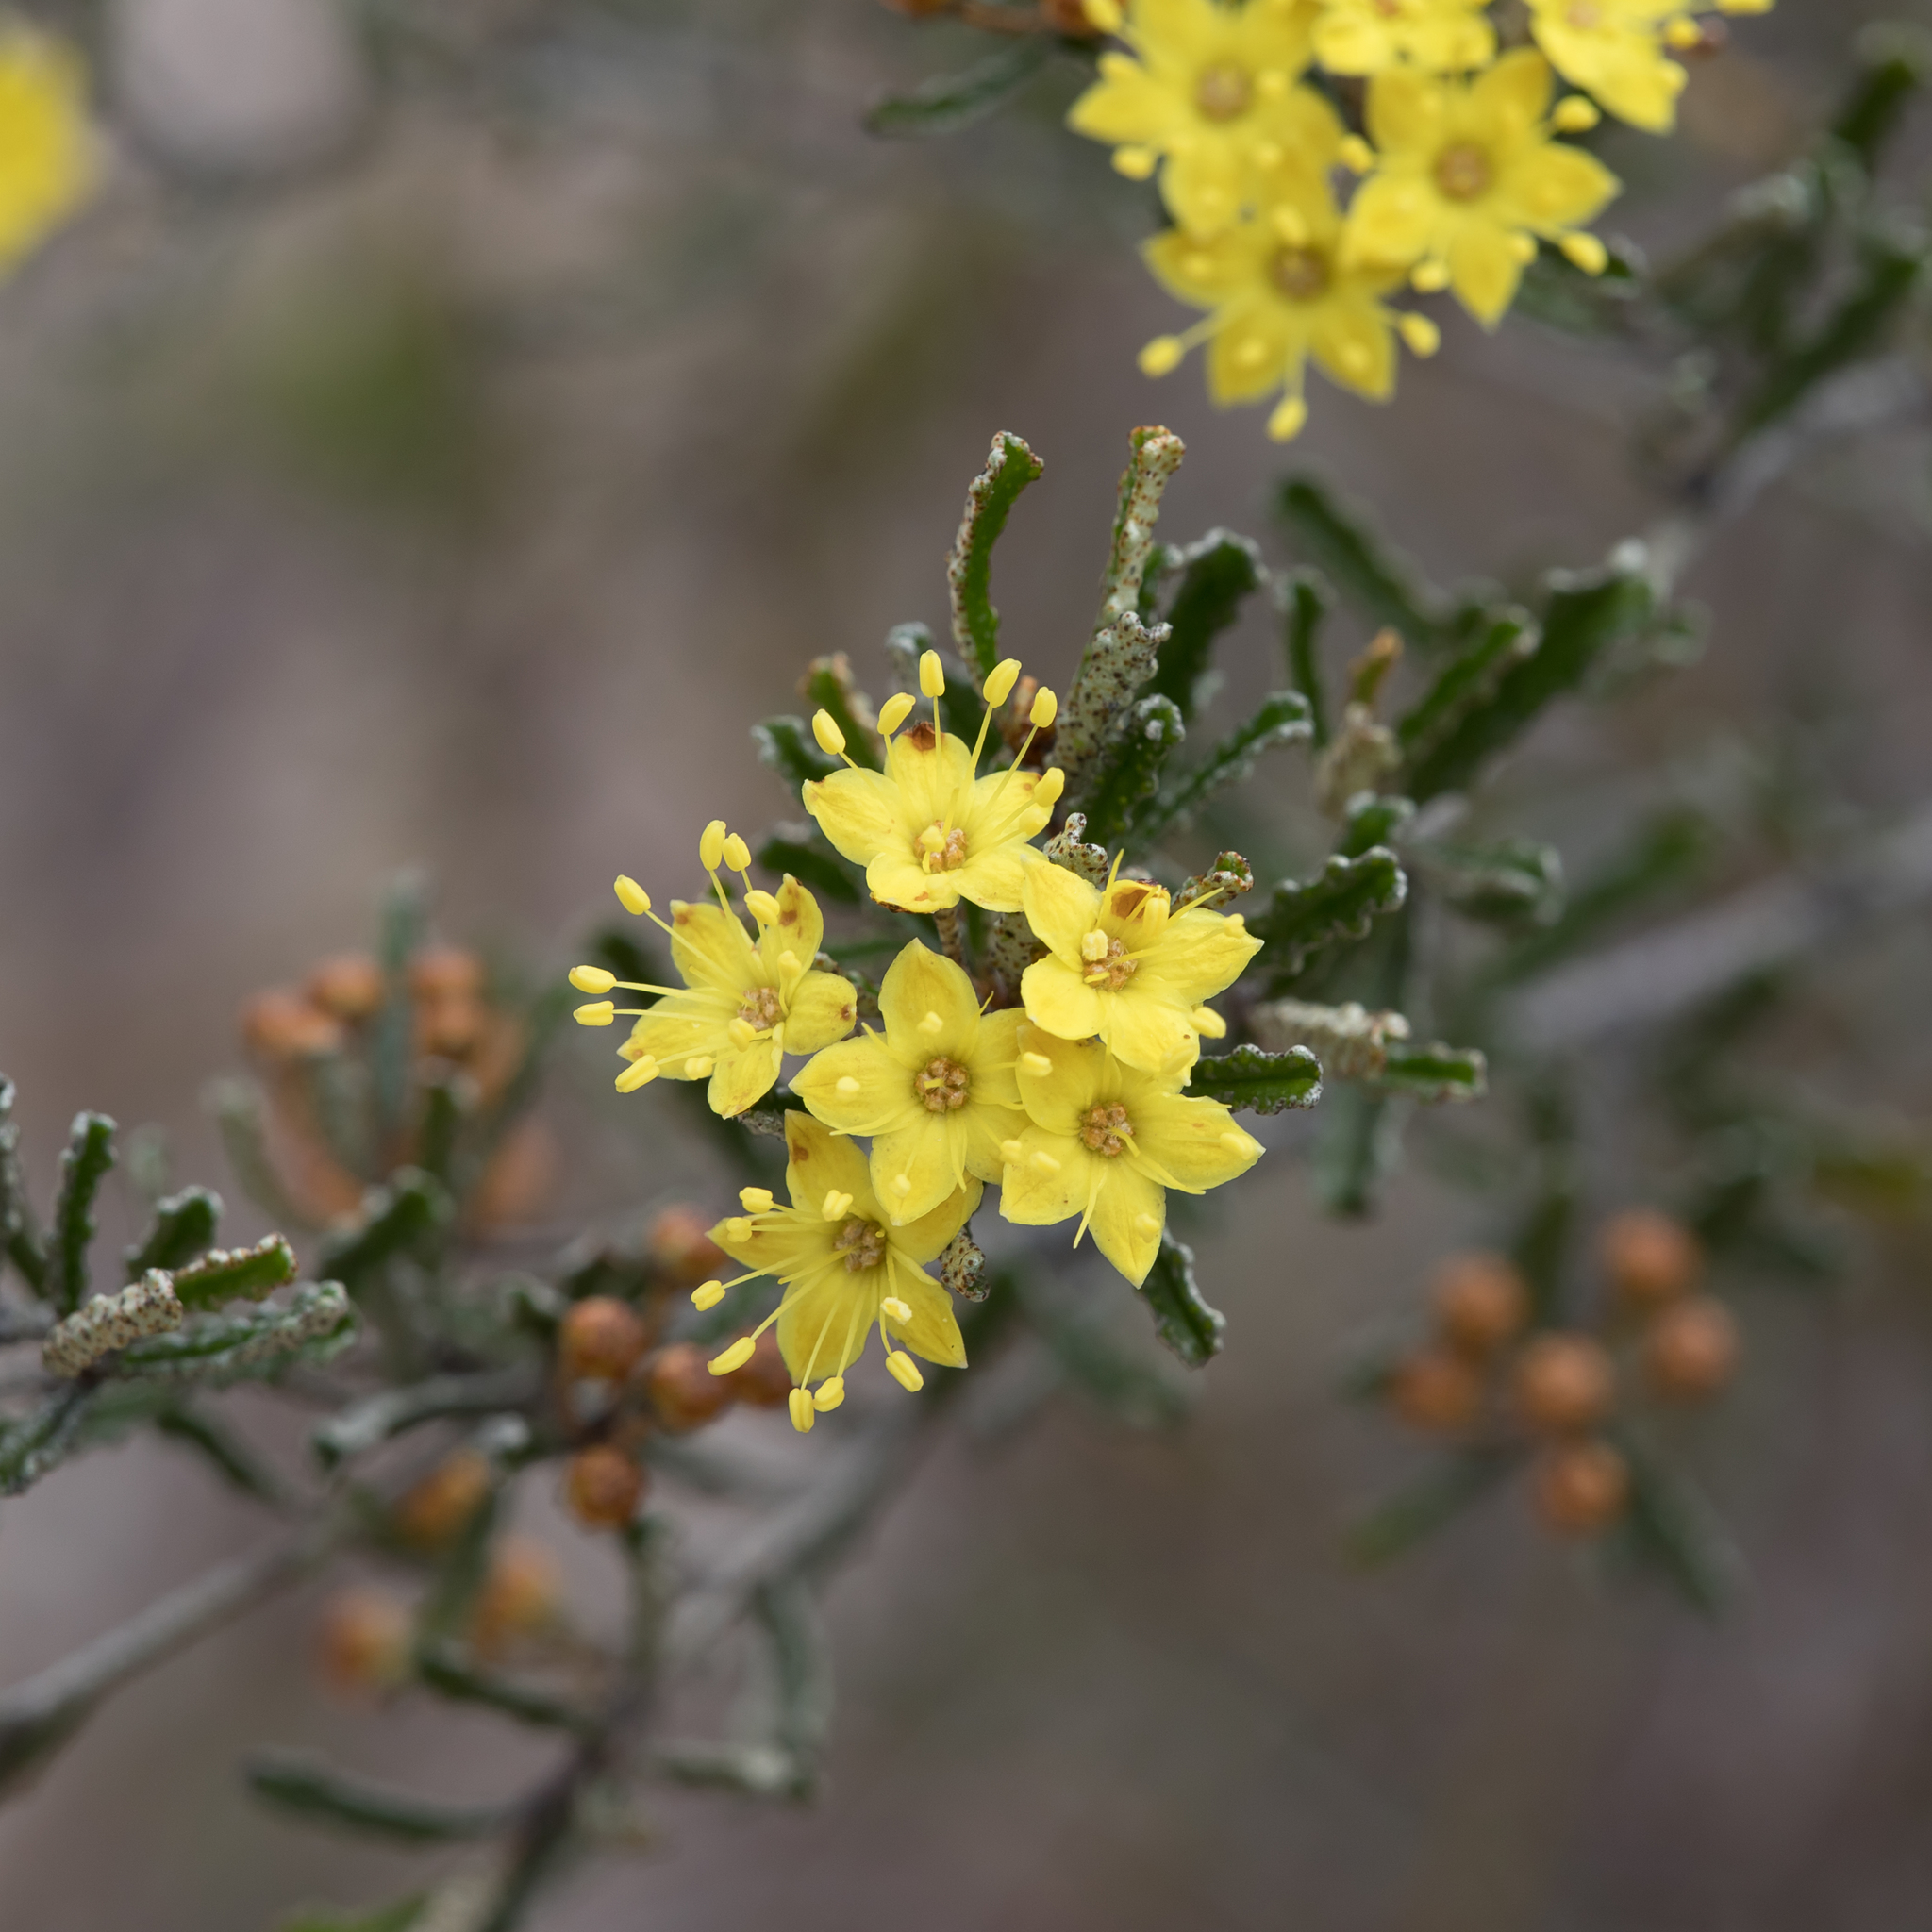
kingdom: Plantae
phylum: Tracheophyta
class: Magnoliopsida
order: Sapindales
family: Rutaceae
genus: Phebalium
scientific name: Phebalium bullatum
